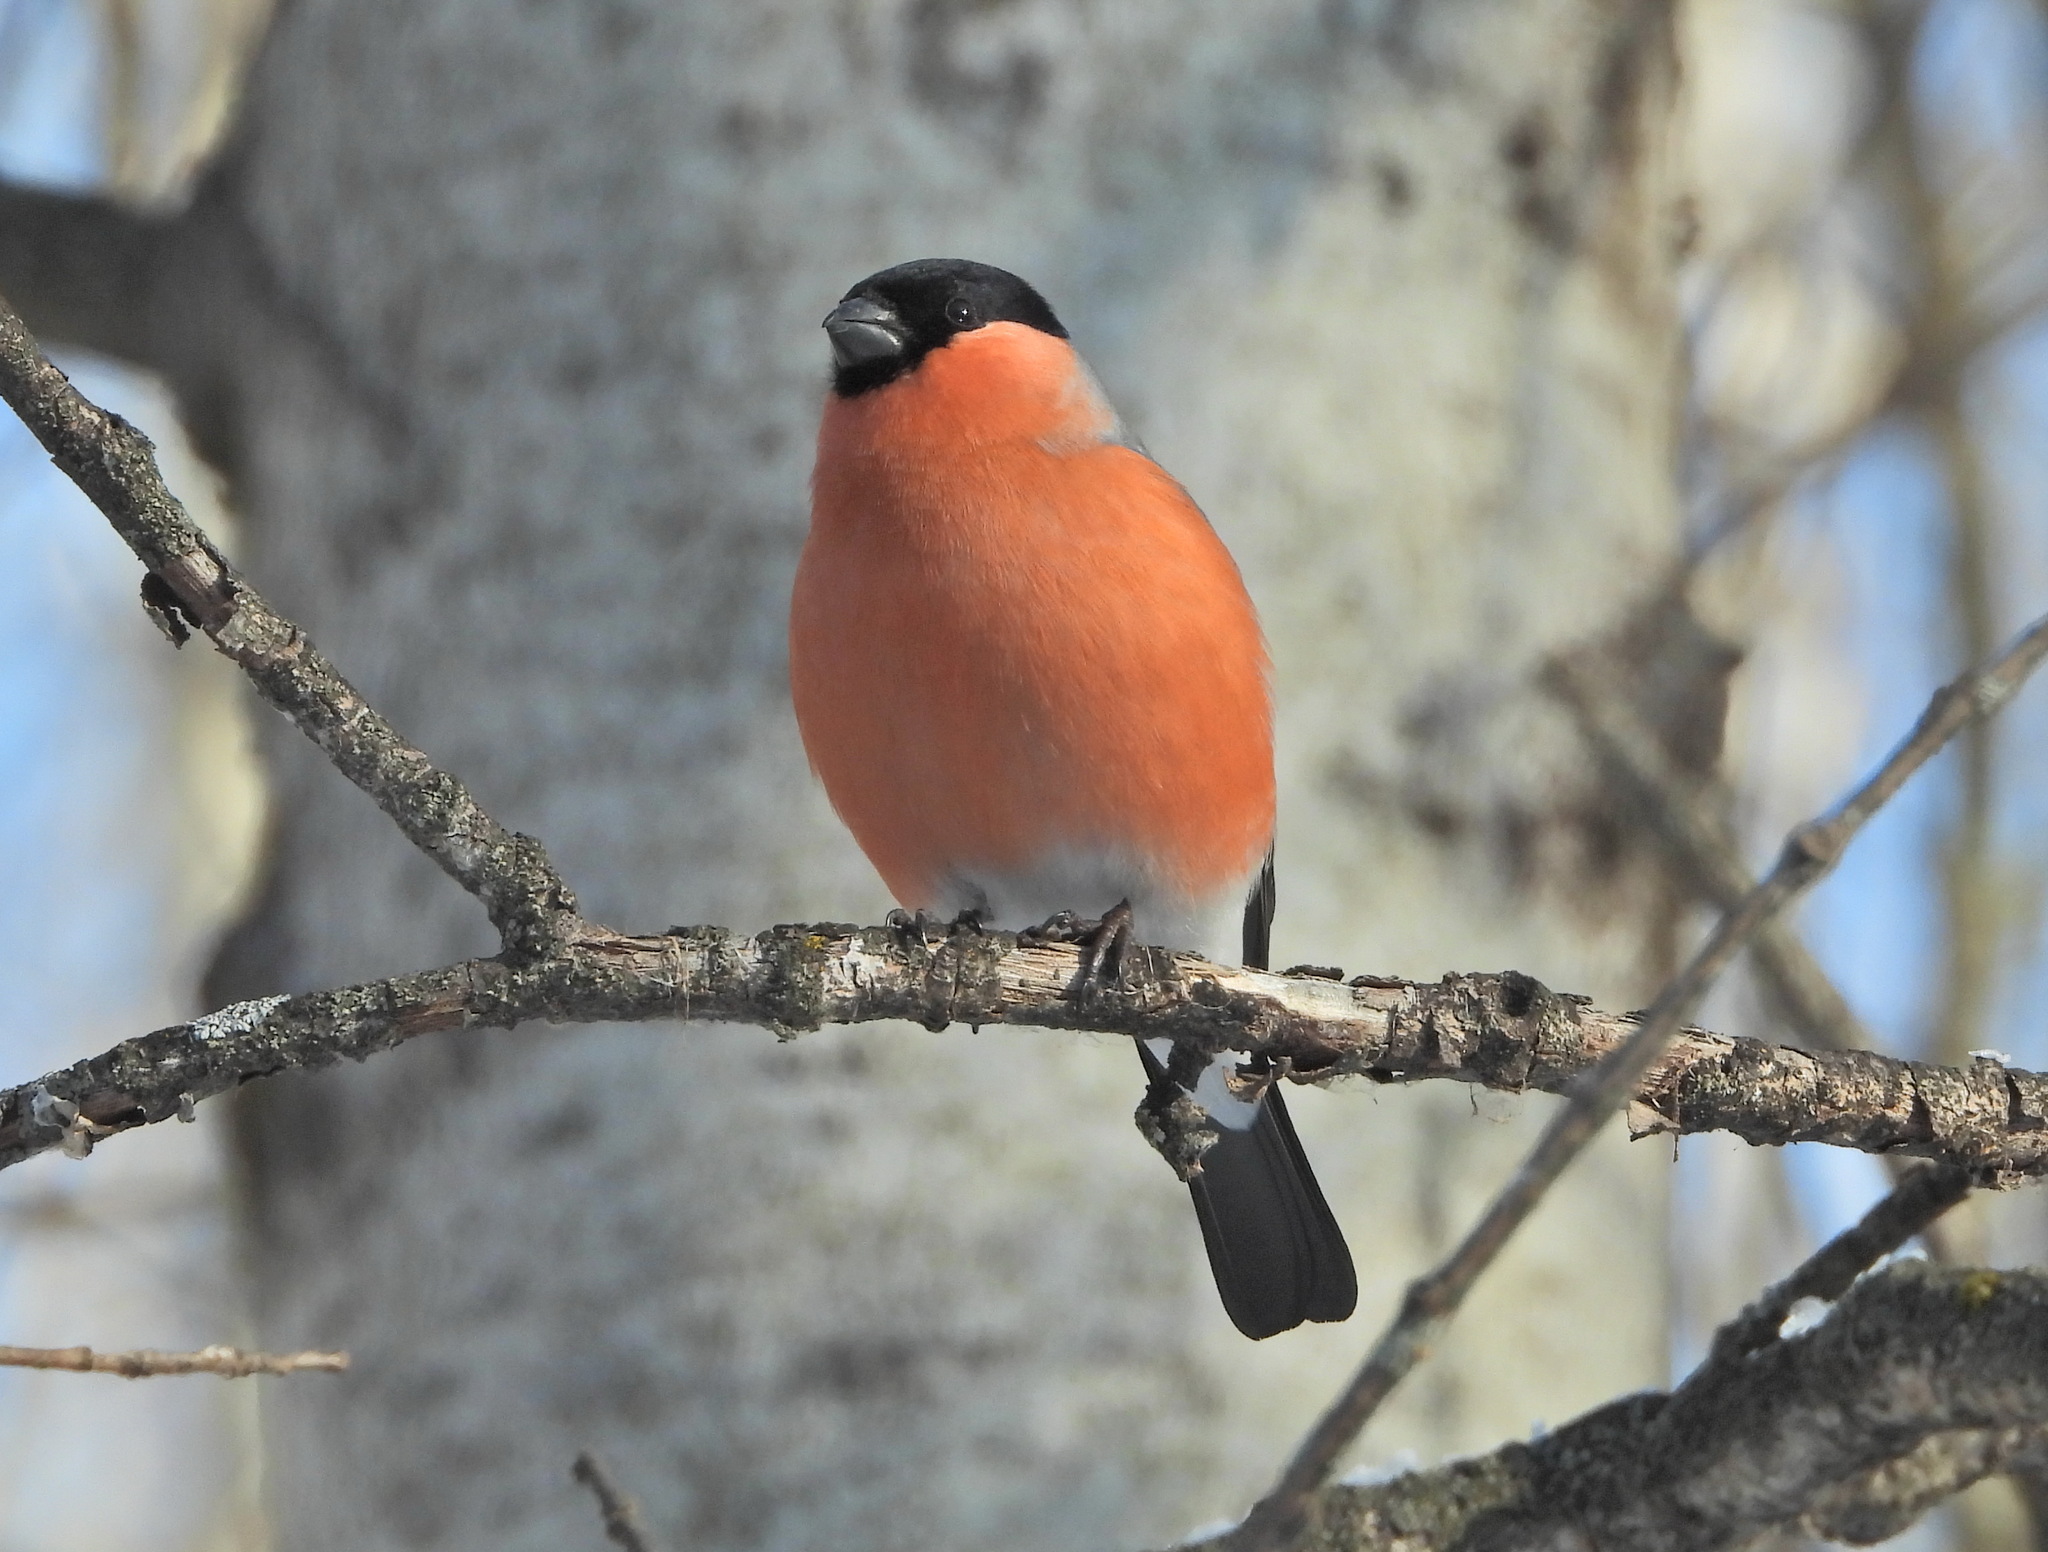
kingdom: Animalia
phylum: Chordata
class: Aves
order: Passeriformes
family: Fringillidae
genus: Pyrrhula
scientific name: Pyrrhula pyrrhula
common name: Eurasian bullfinch
